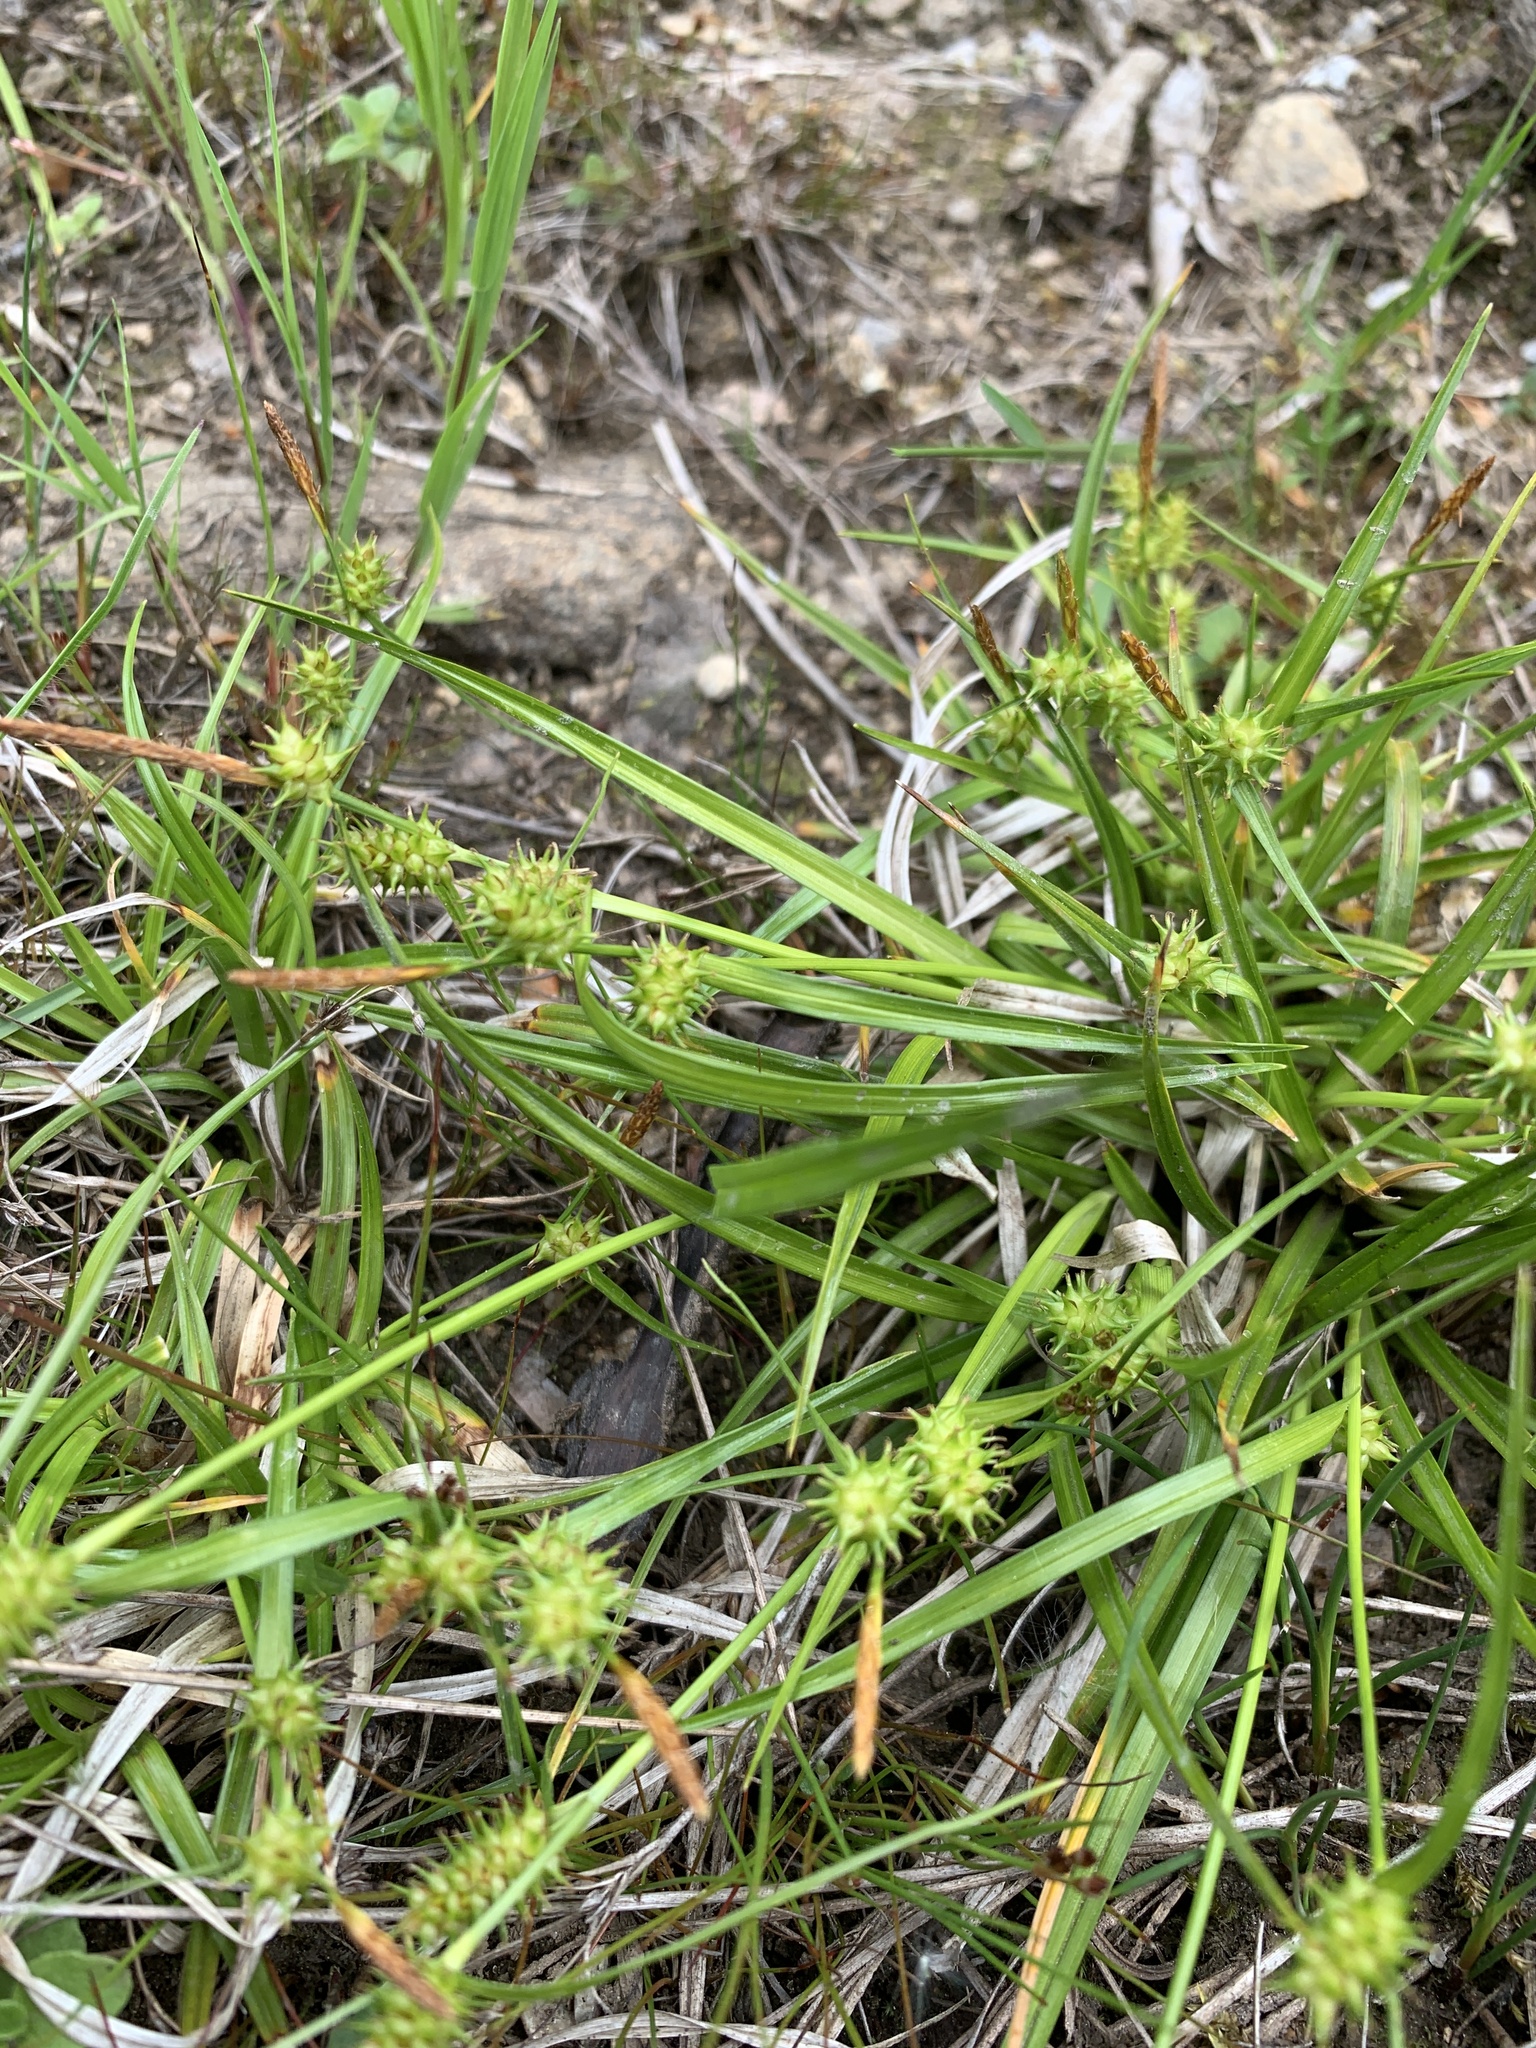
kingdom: Plantae
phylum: Tracheophyta
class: Liliopsida
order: Poales
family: Cyperaceae
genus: Carex
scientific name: Carex demissa
